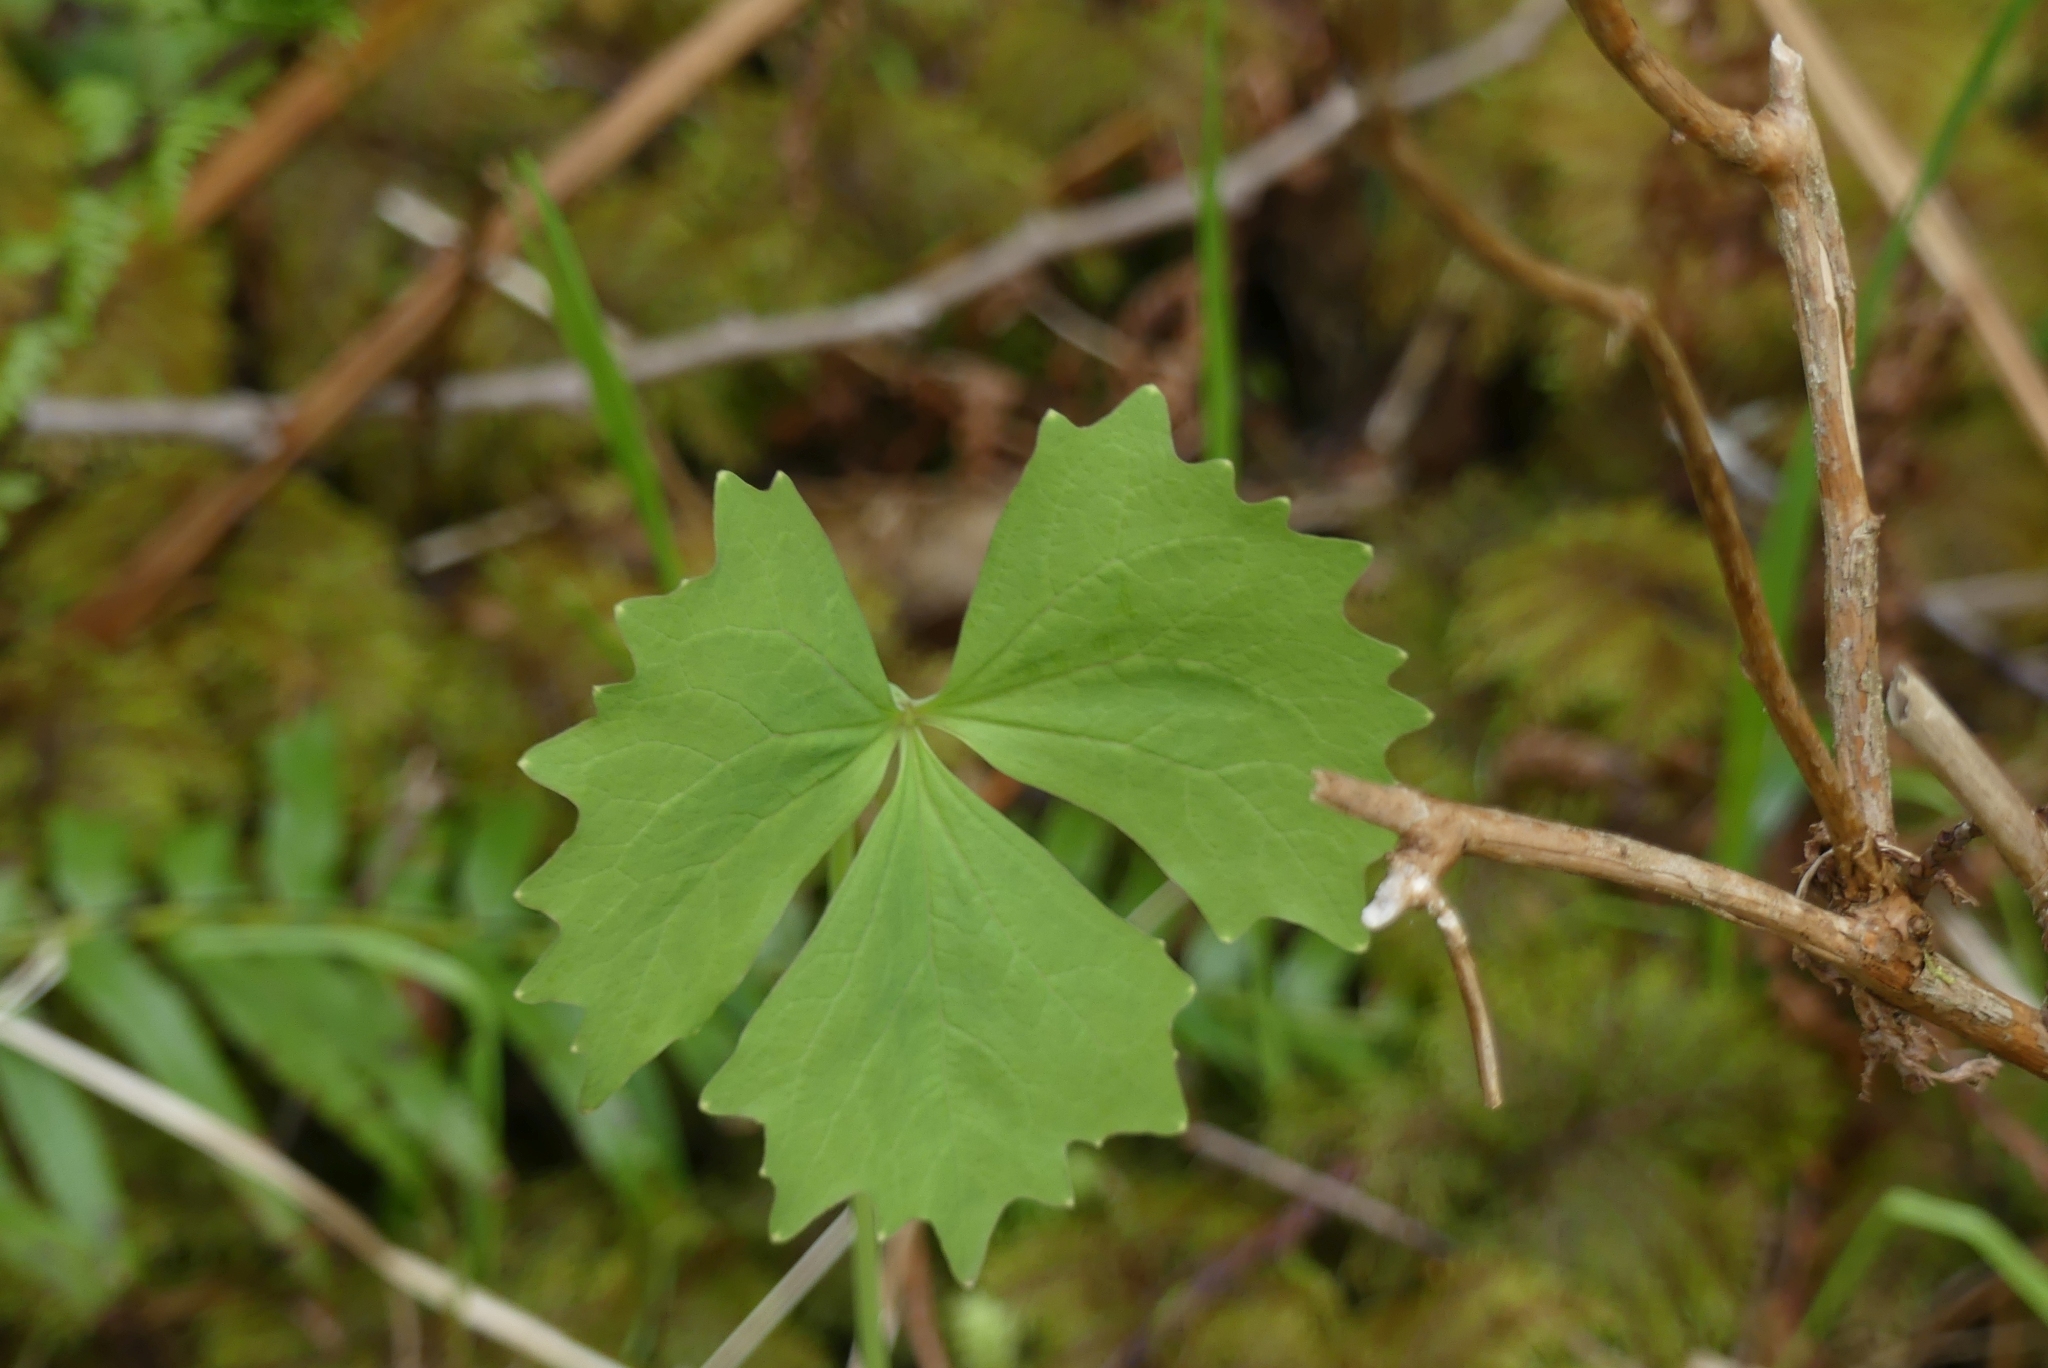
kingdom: Plantae
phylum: Tracheophyta
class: Magnoliopsida
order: Ranunculales
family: Berberidaceae
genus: Achlys
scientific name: Achlys triphylla
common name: Vanilla-leaf
